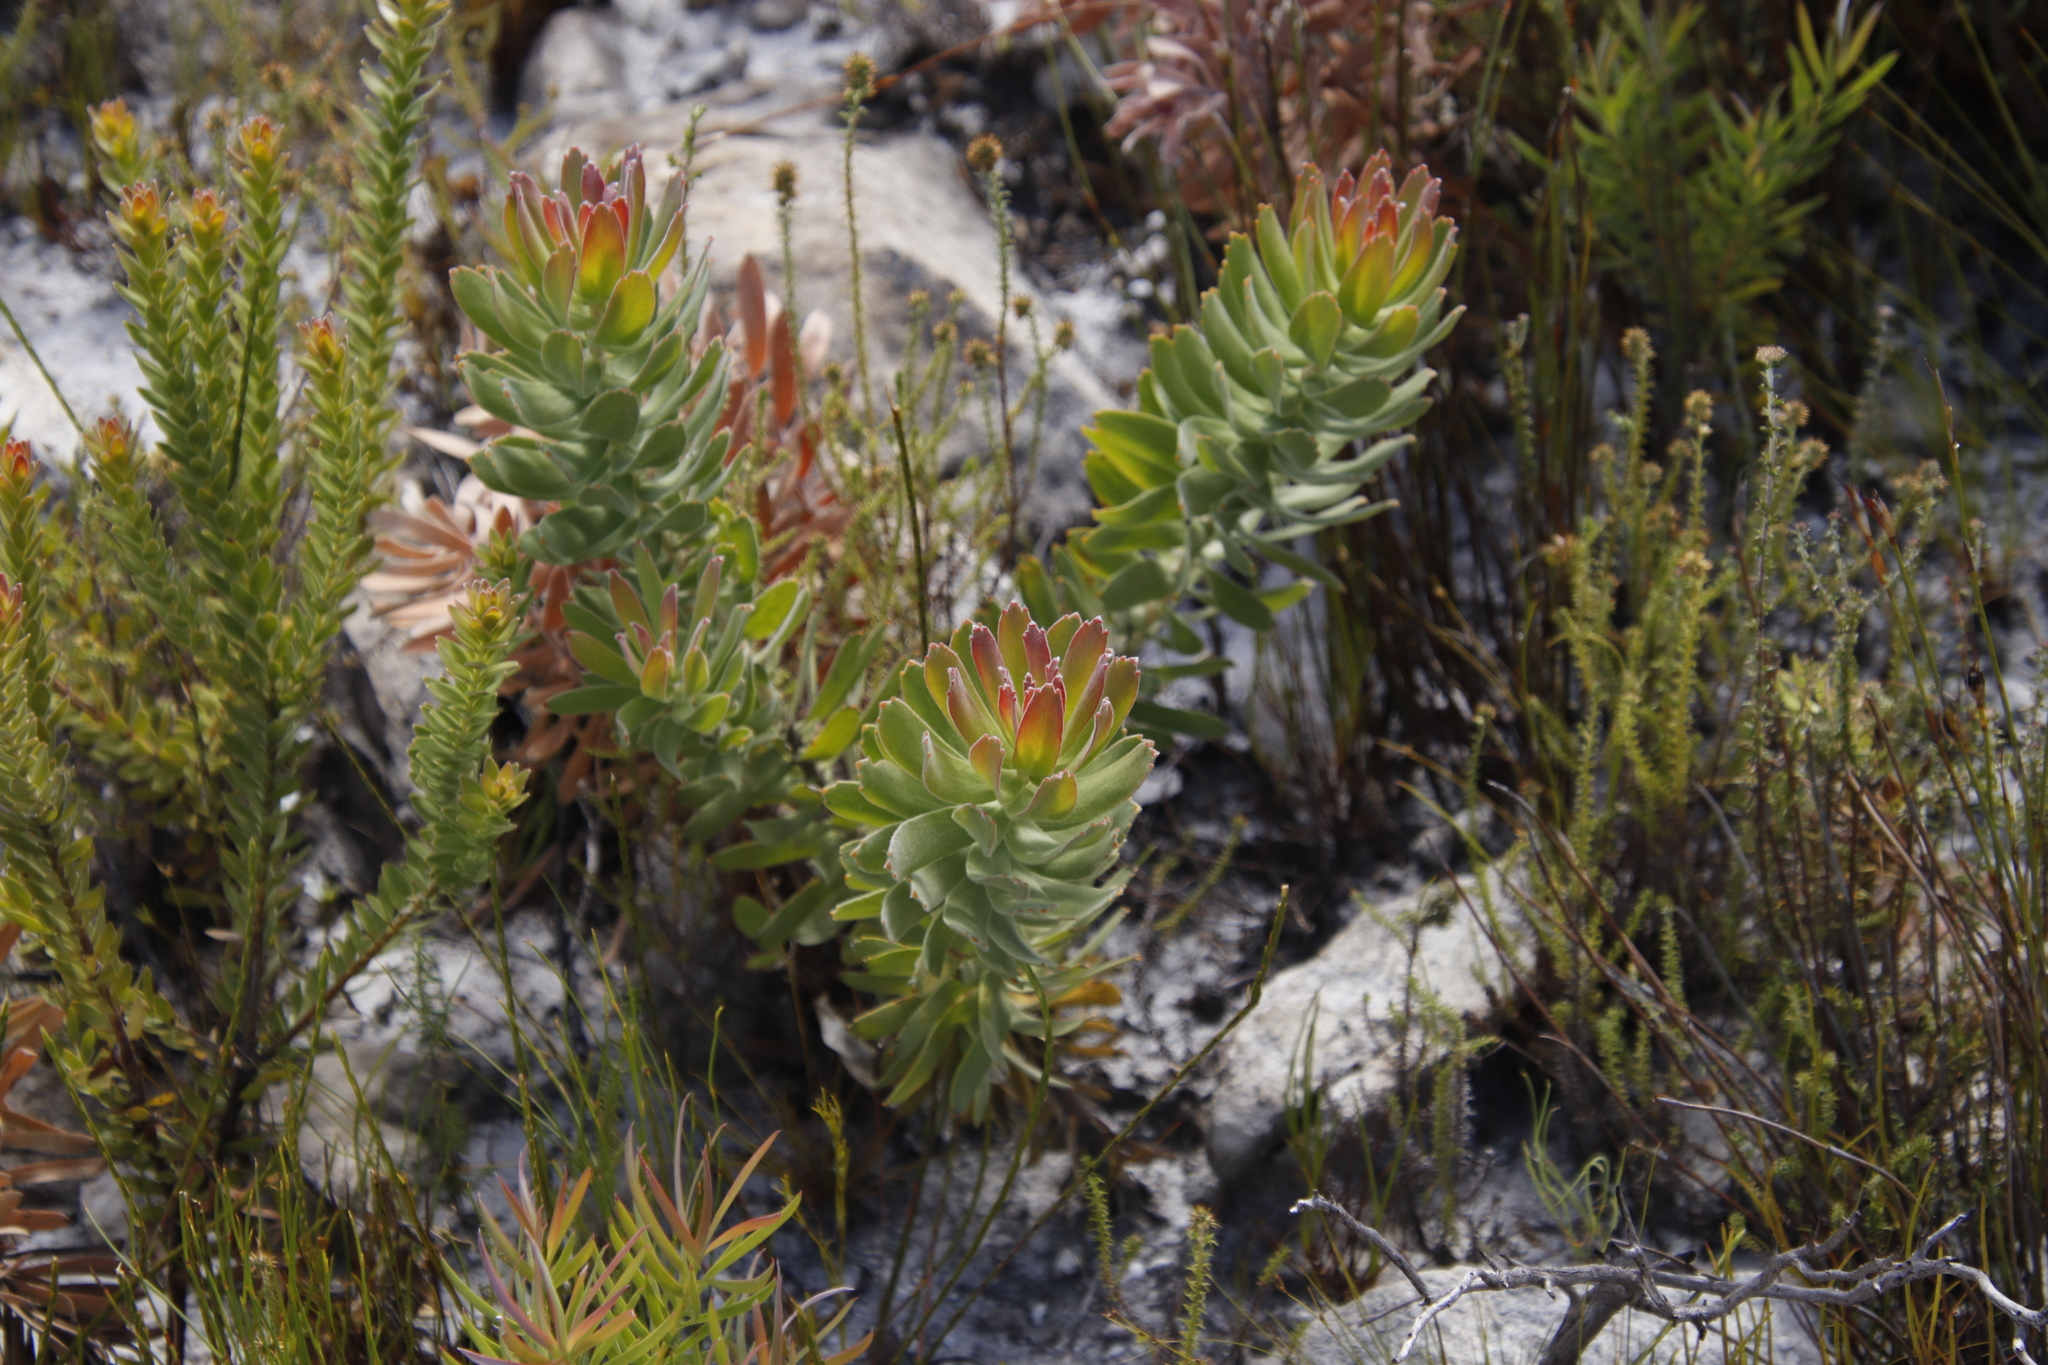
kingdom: Plantae
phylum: Tracheophyta
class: Magnoliopsida
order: Proteales
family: Proteaceae
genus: Mimetes
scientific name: Mimetes cucullatus
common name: Common pagoda
